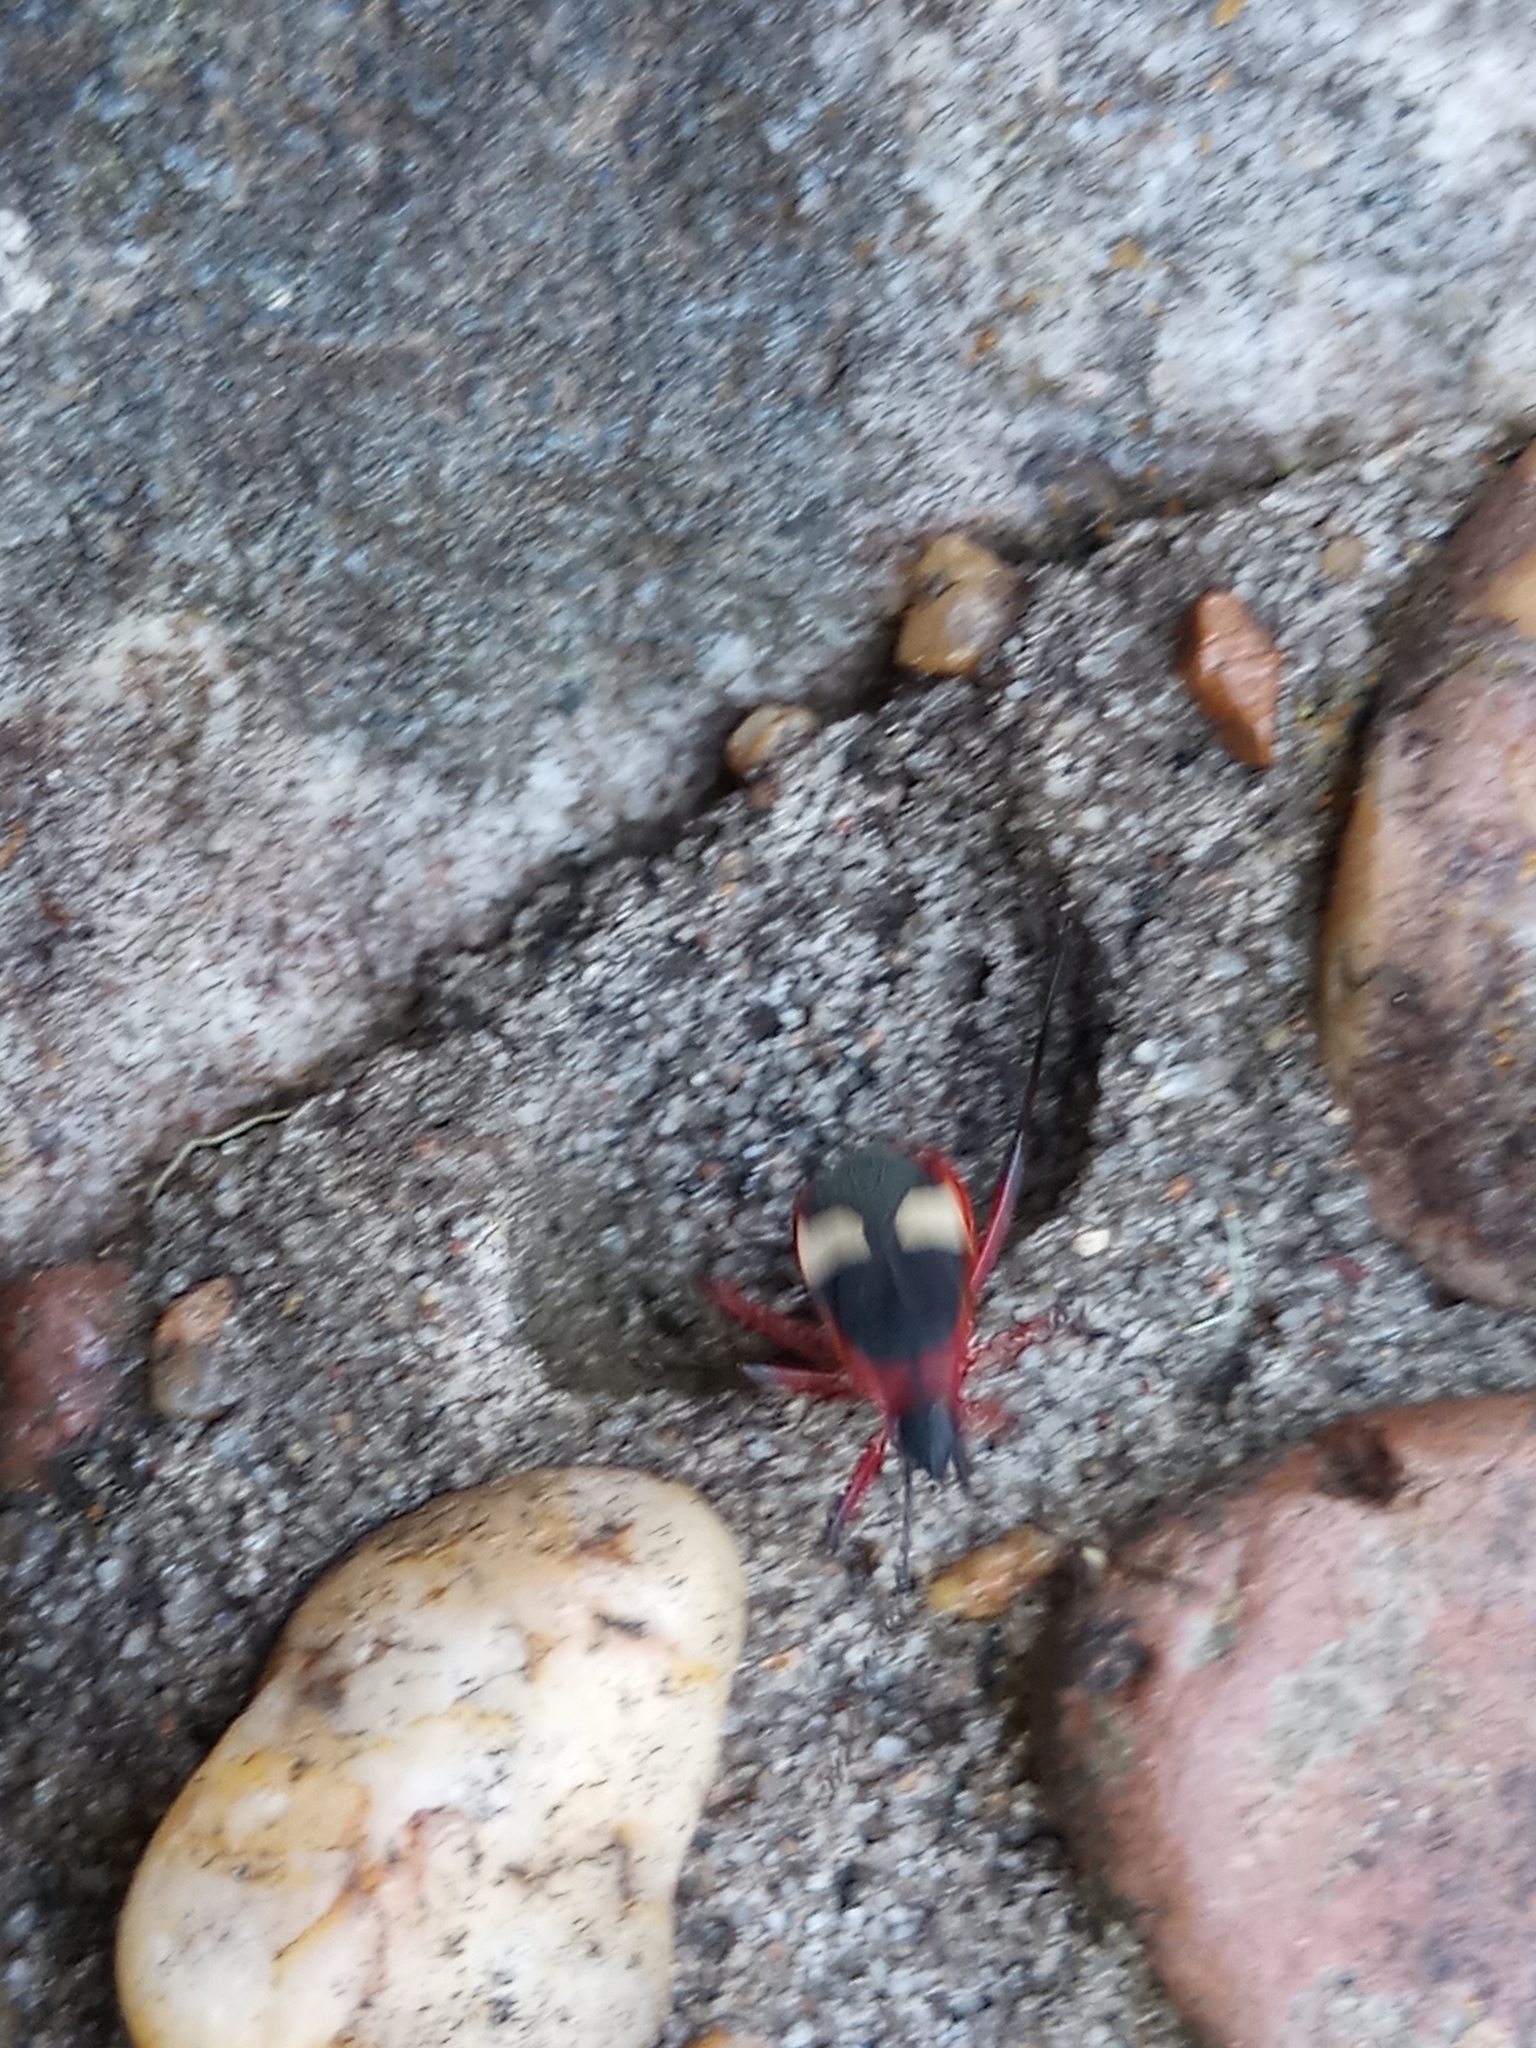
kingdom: Animalia
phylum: Arthropoda
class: Insecta
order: Hemiptera
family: Pyrrhocoridae
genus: Dysdercus
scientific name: Dysdercus albofasciatus
